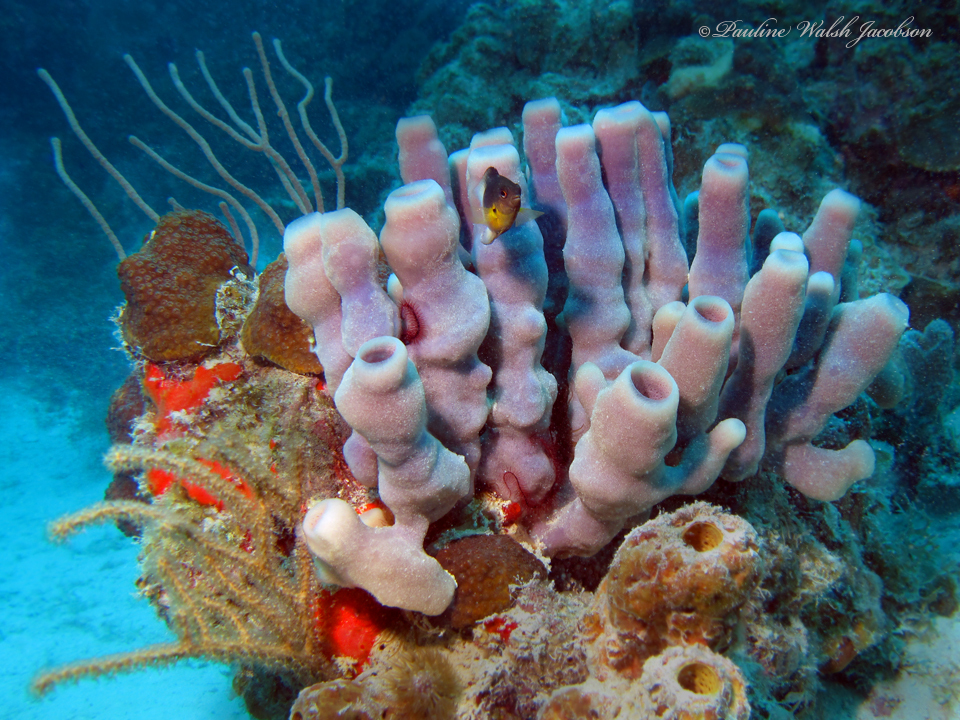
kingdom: Animalia
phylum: Porifera
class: Demospongiae
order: Haplosclerida
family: Callyspongiidae
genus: Callyspongia
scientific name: Callyspongia fallax
